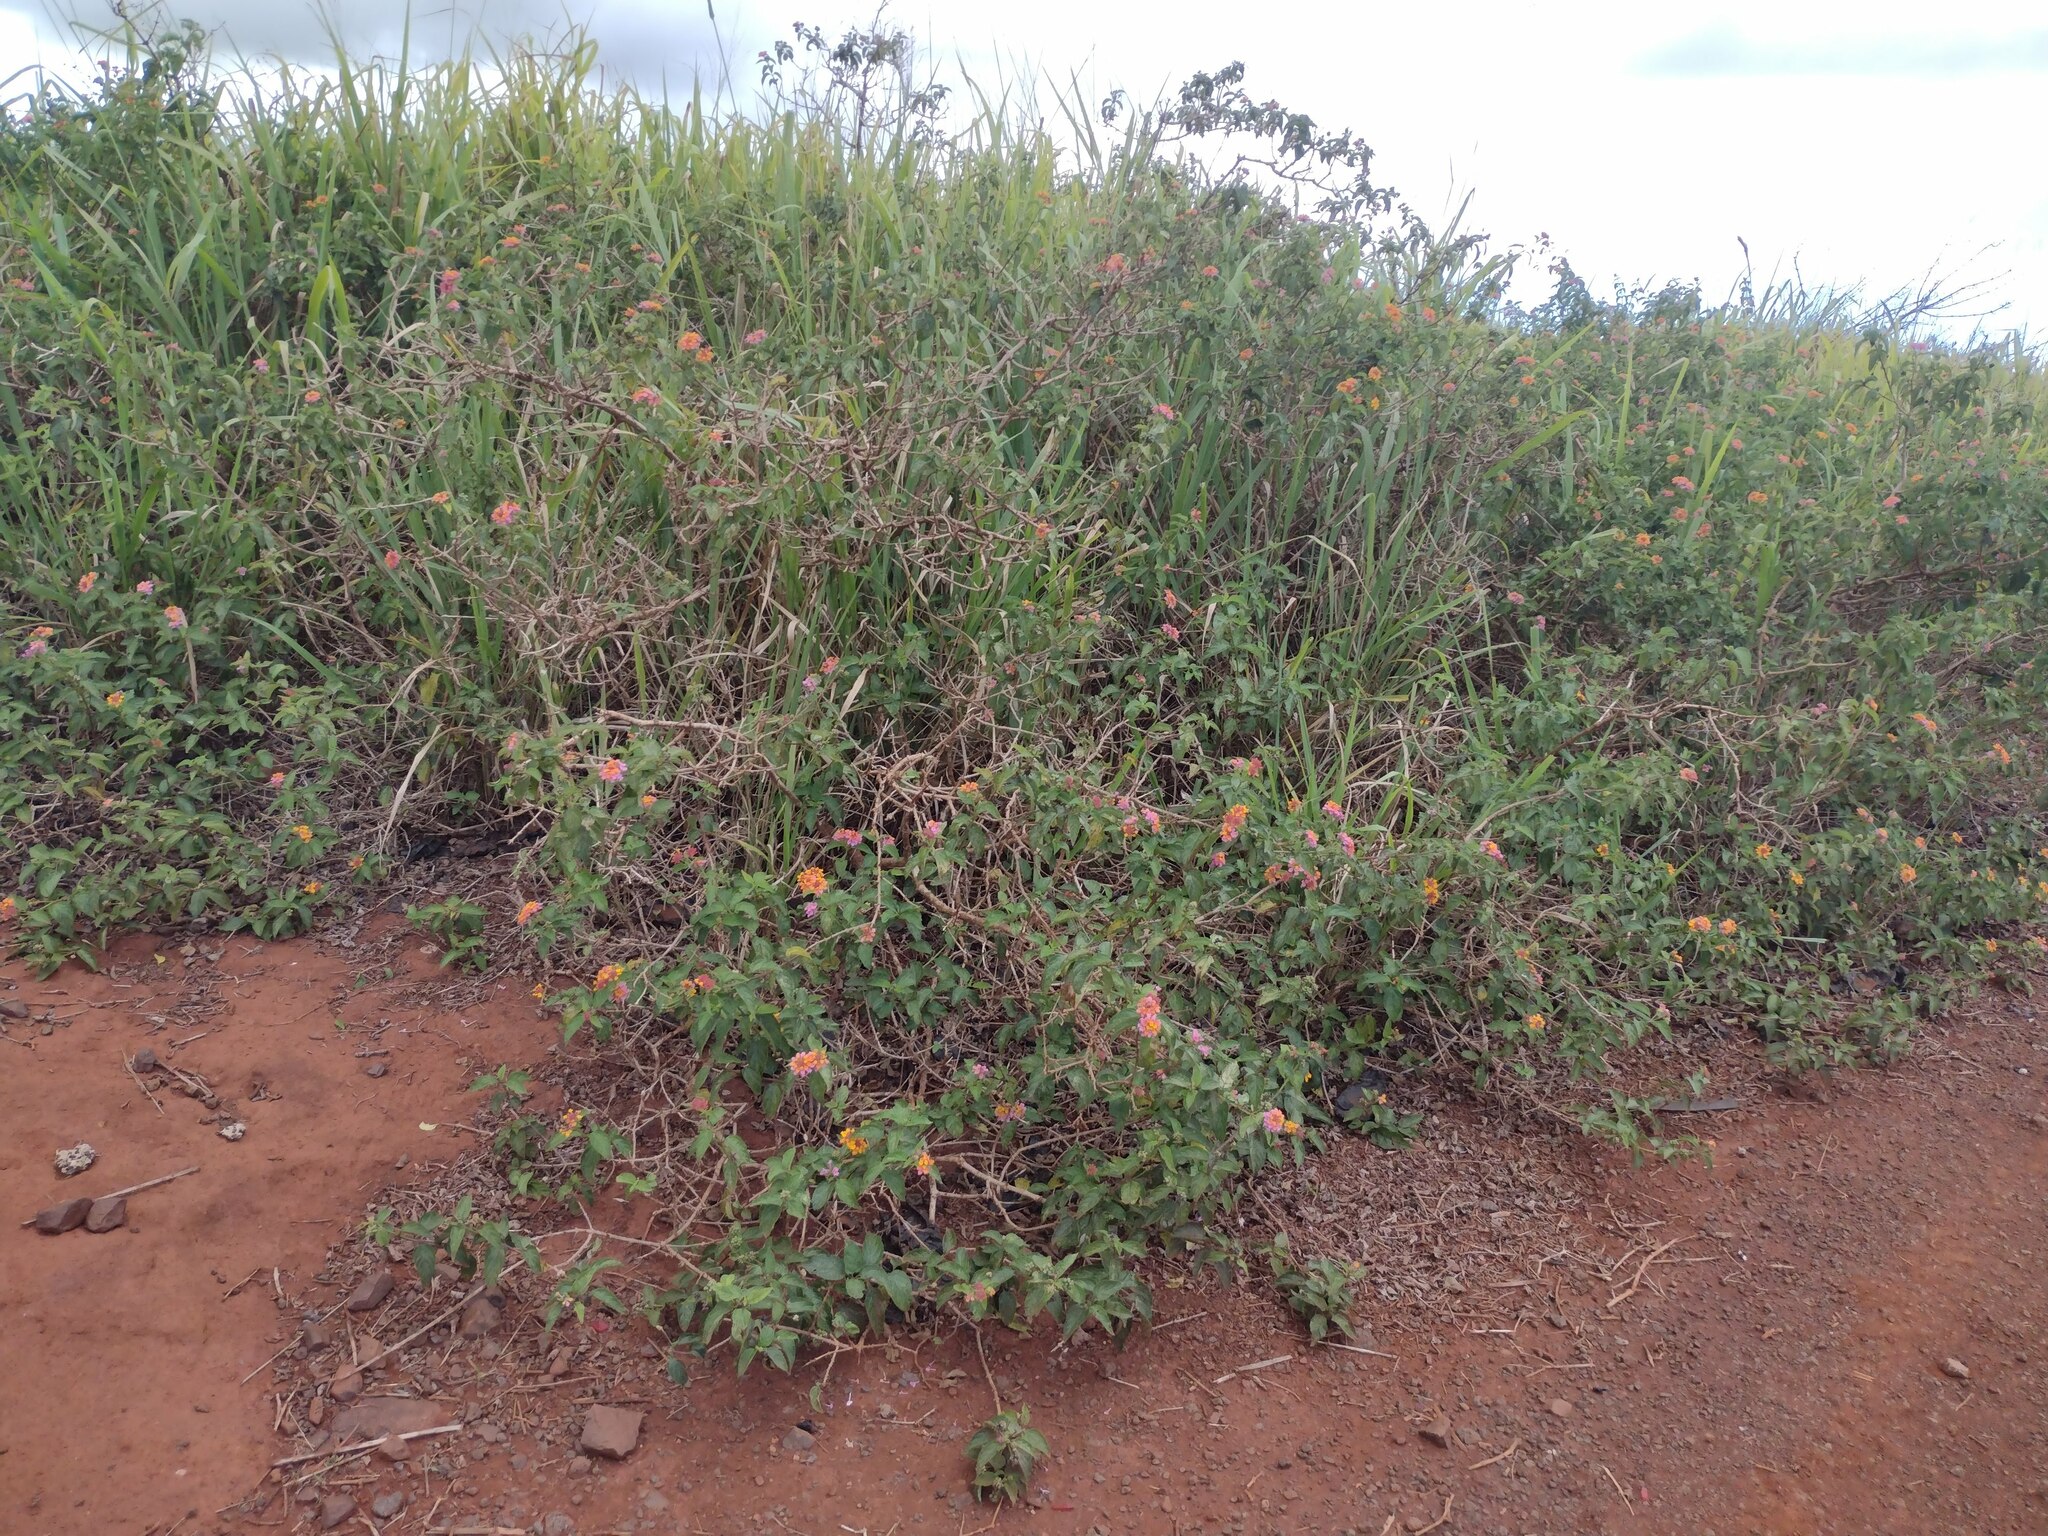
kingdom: Plantae
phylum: Tracheophyta
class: Magnoliopsida
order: Lamiales
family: Verbenaceae
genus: Lantana
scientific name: Lantana camara
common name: Lantana
